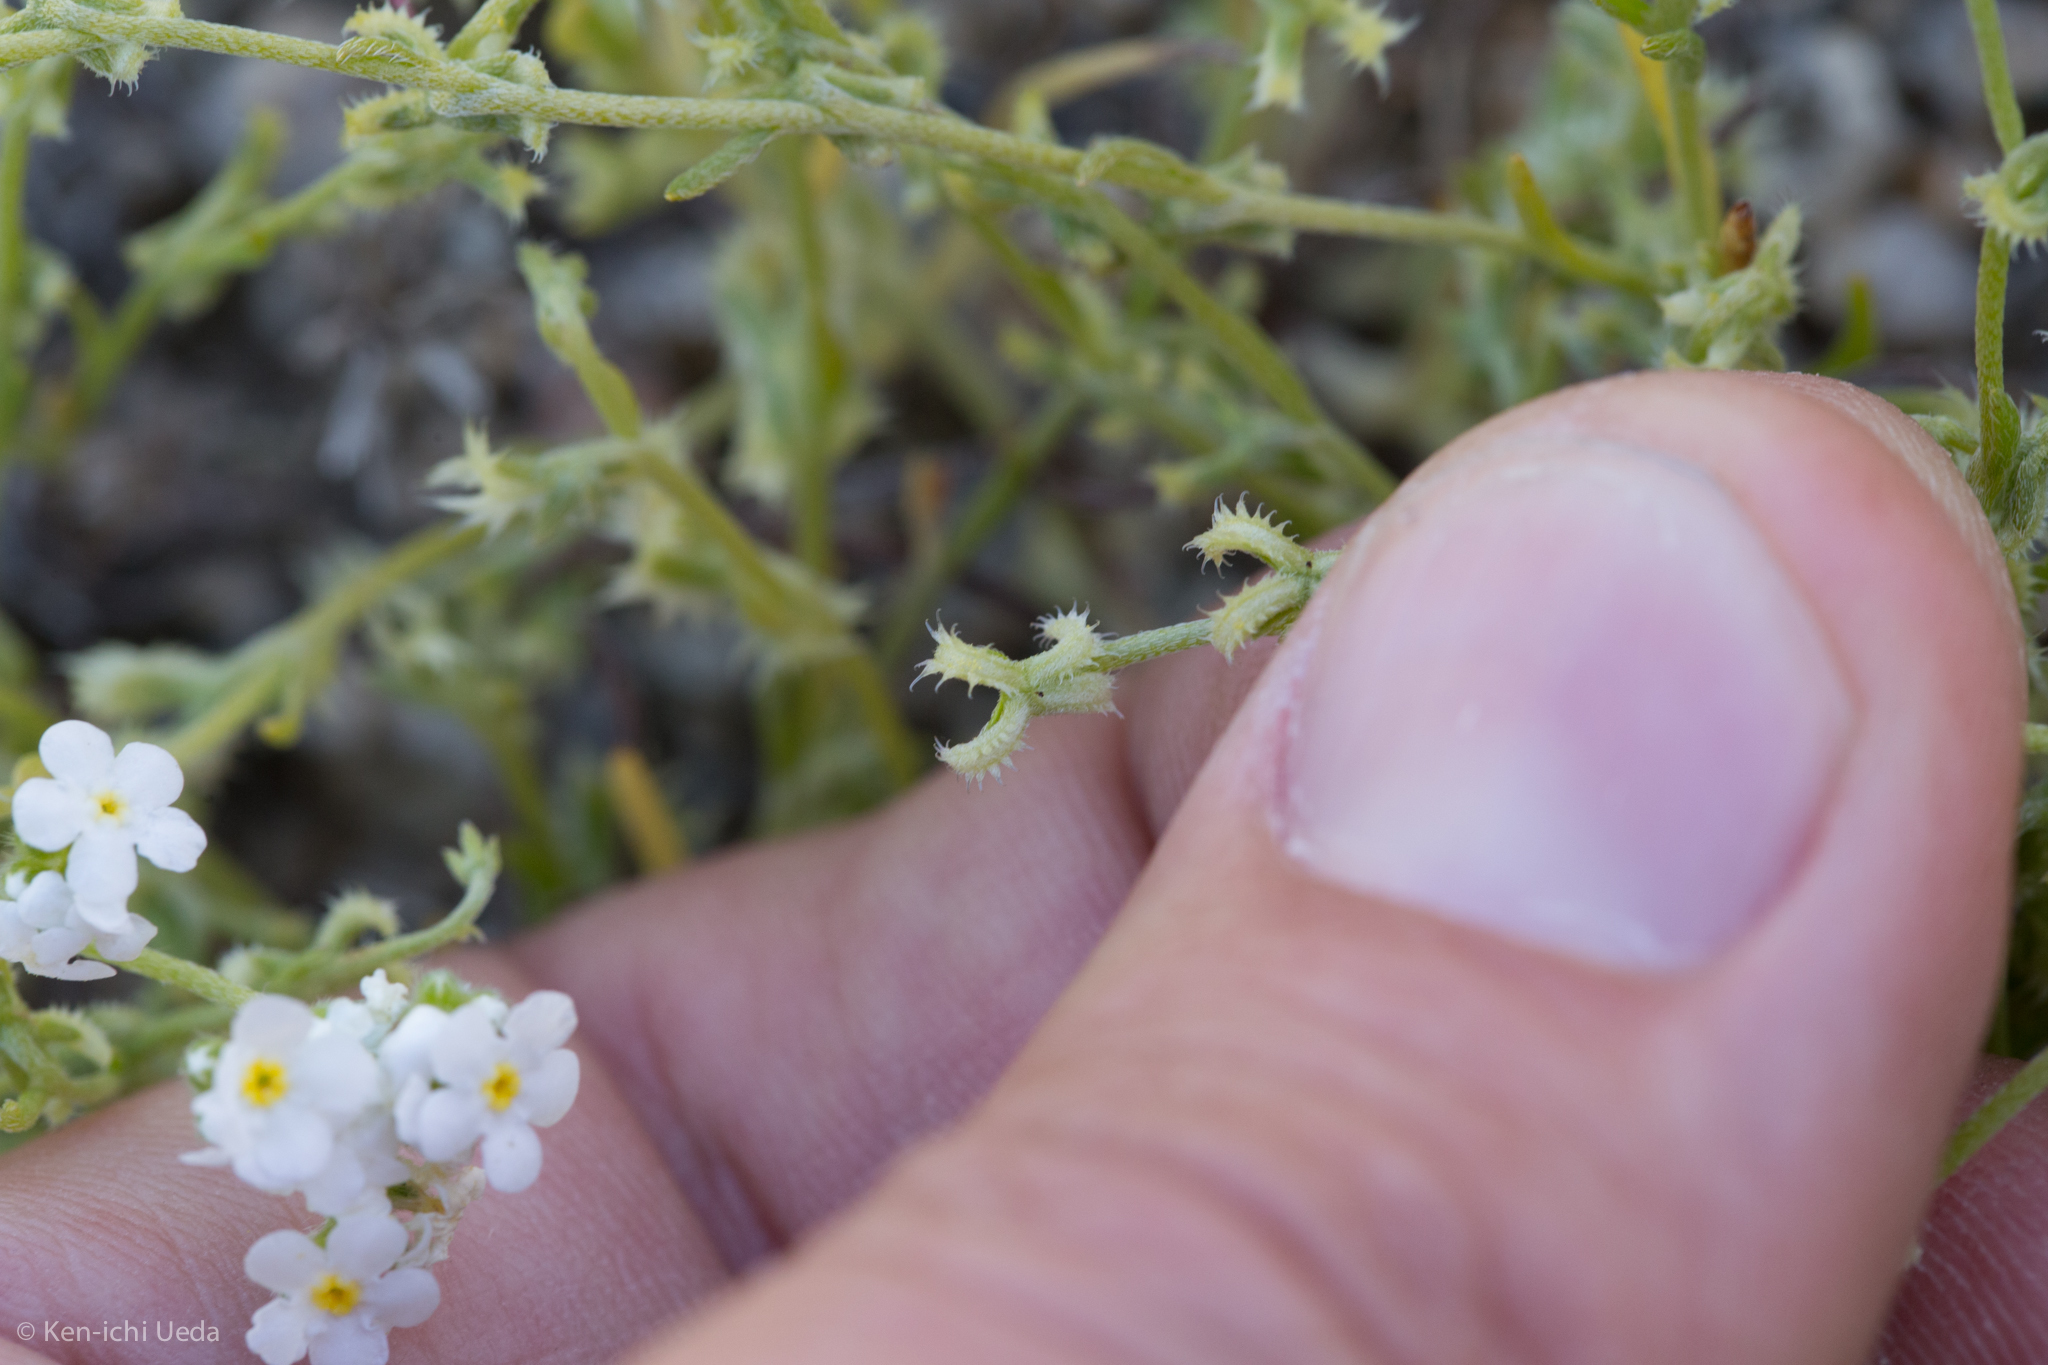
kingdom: Plantae
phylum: Tracheophyta
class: Magnoliopsida
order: Boraginales
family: Boraginaceae
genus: Pectocarya
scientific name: Pectocarya recurvata
